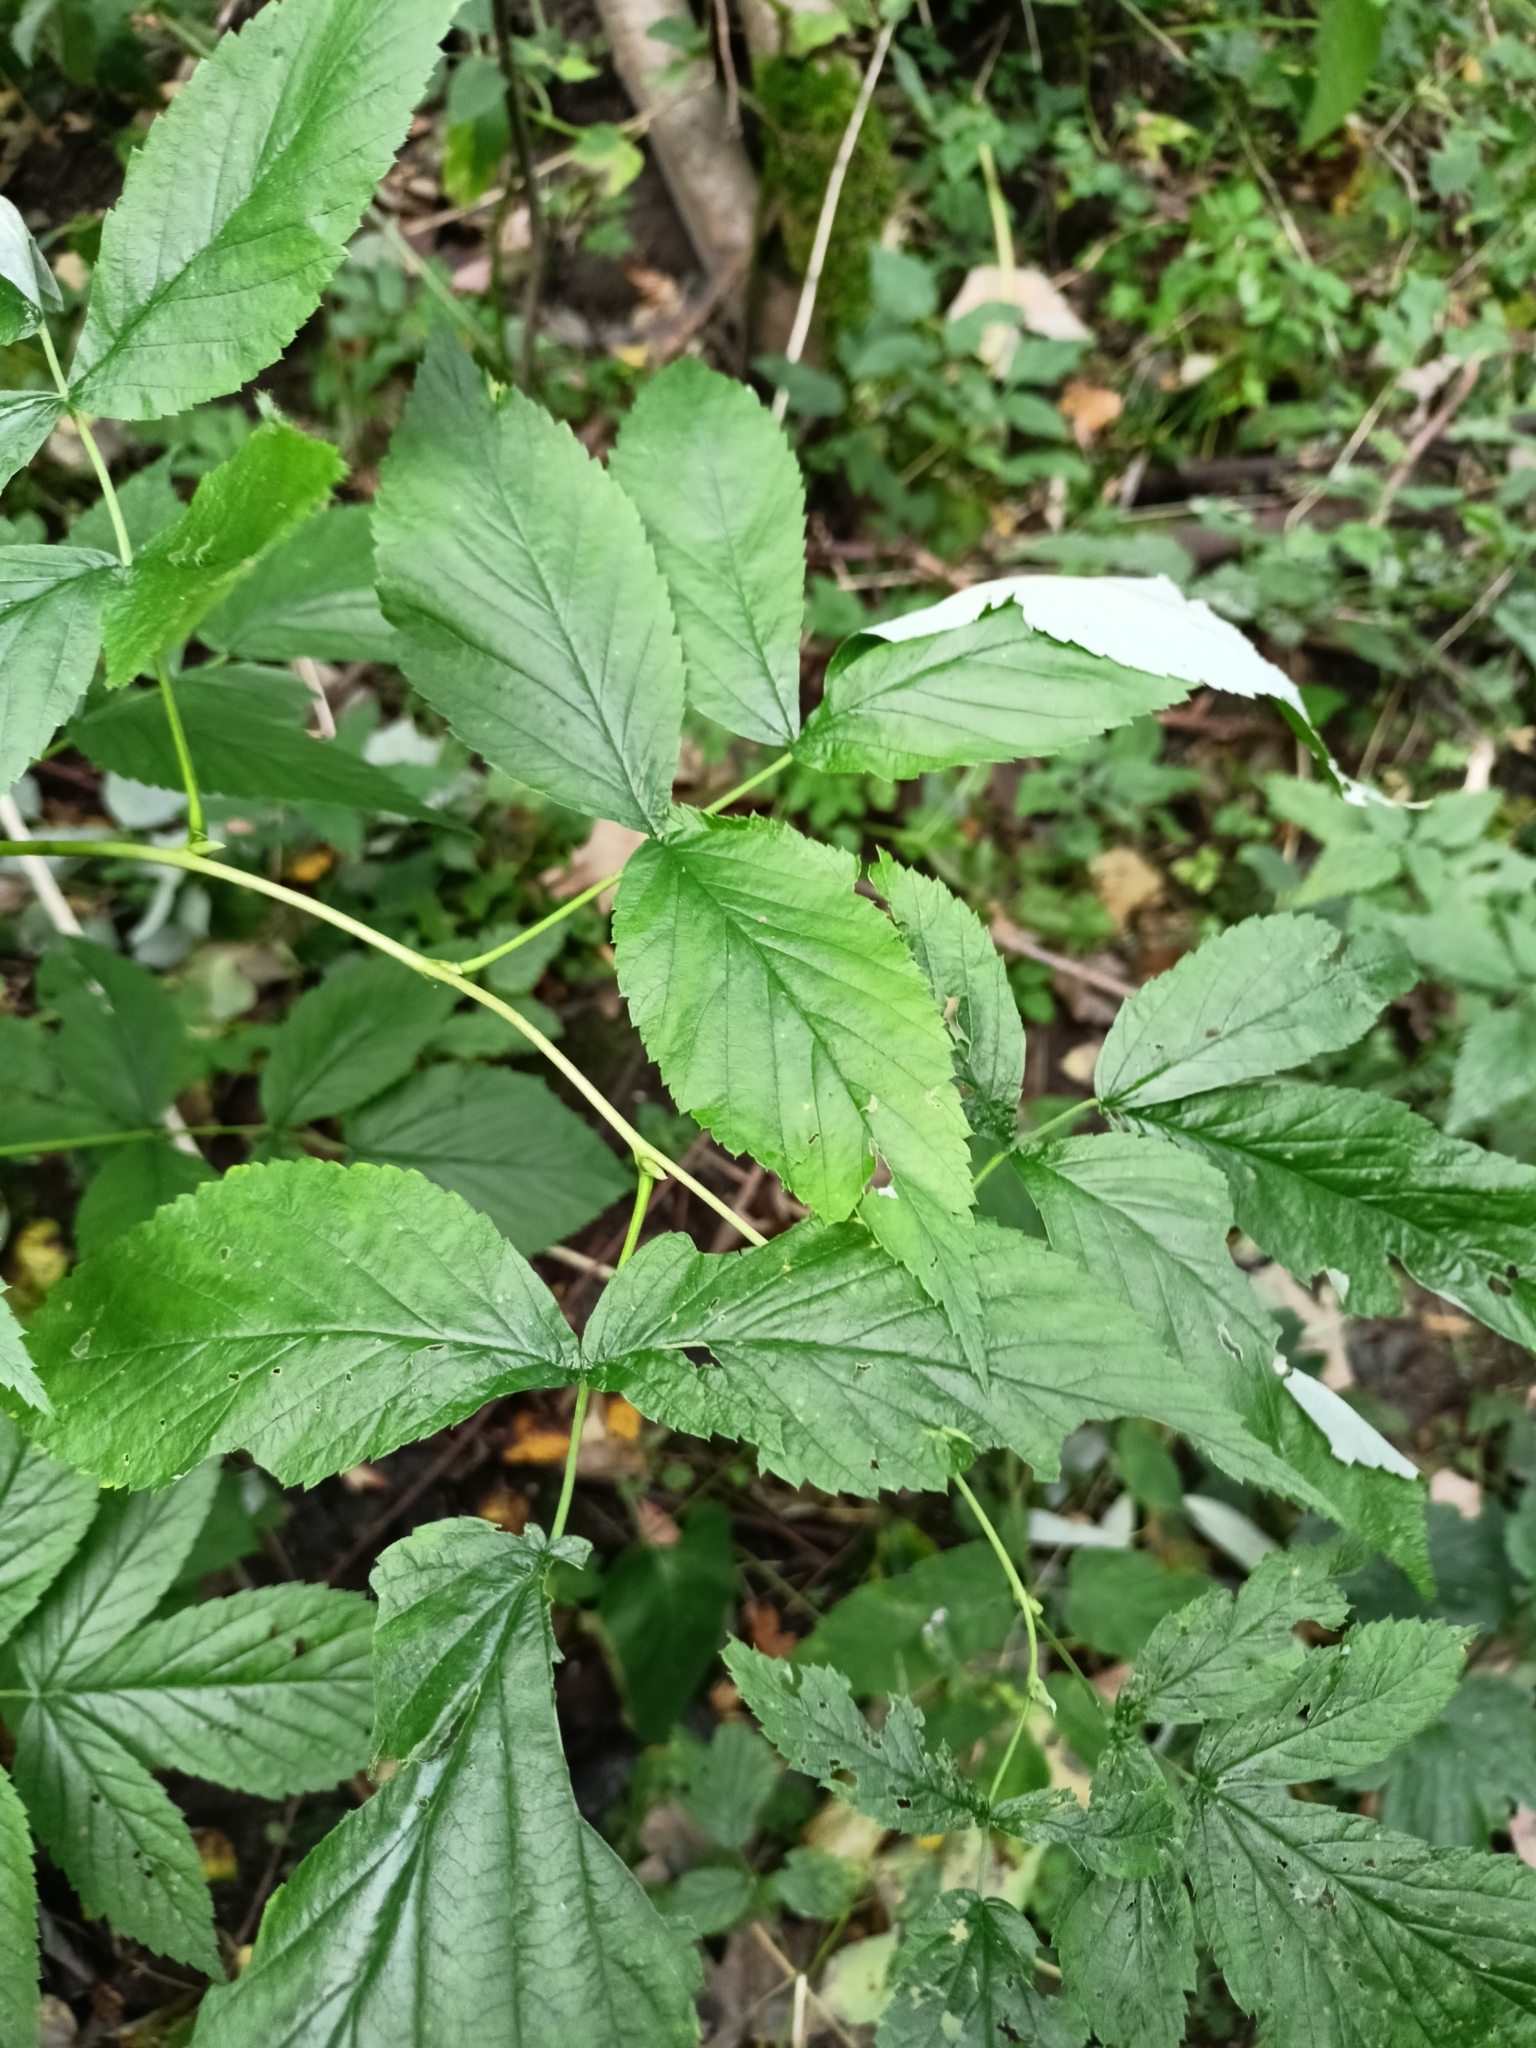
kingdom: Plantae
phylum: Tracheophyta
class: Magnoliopsida
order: Rosales
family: Rosaceae
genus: Rubus
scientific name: Rubus idaeus
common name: Raspberry
